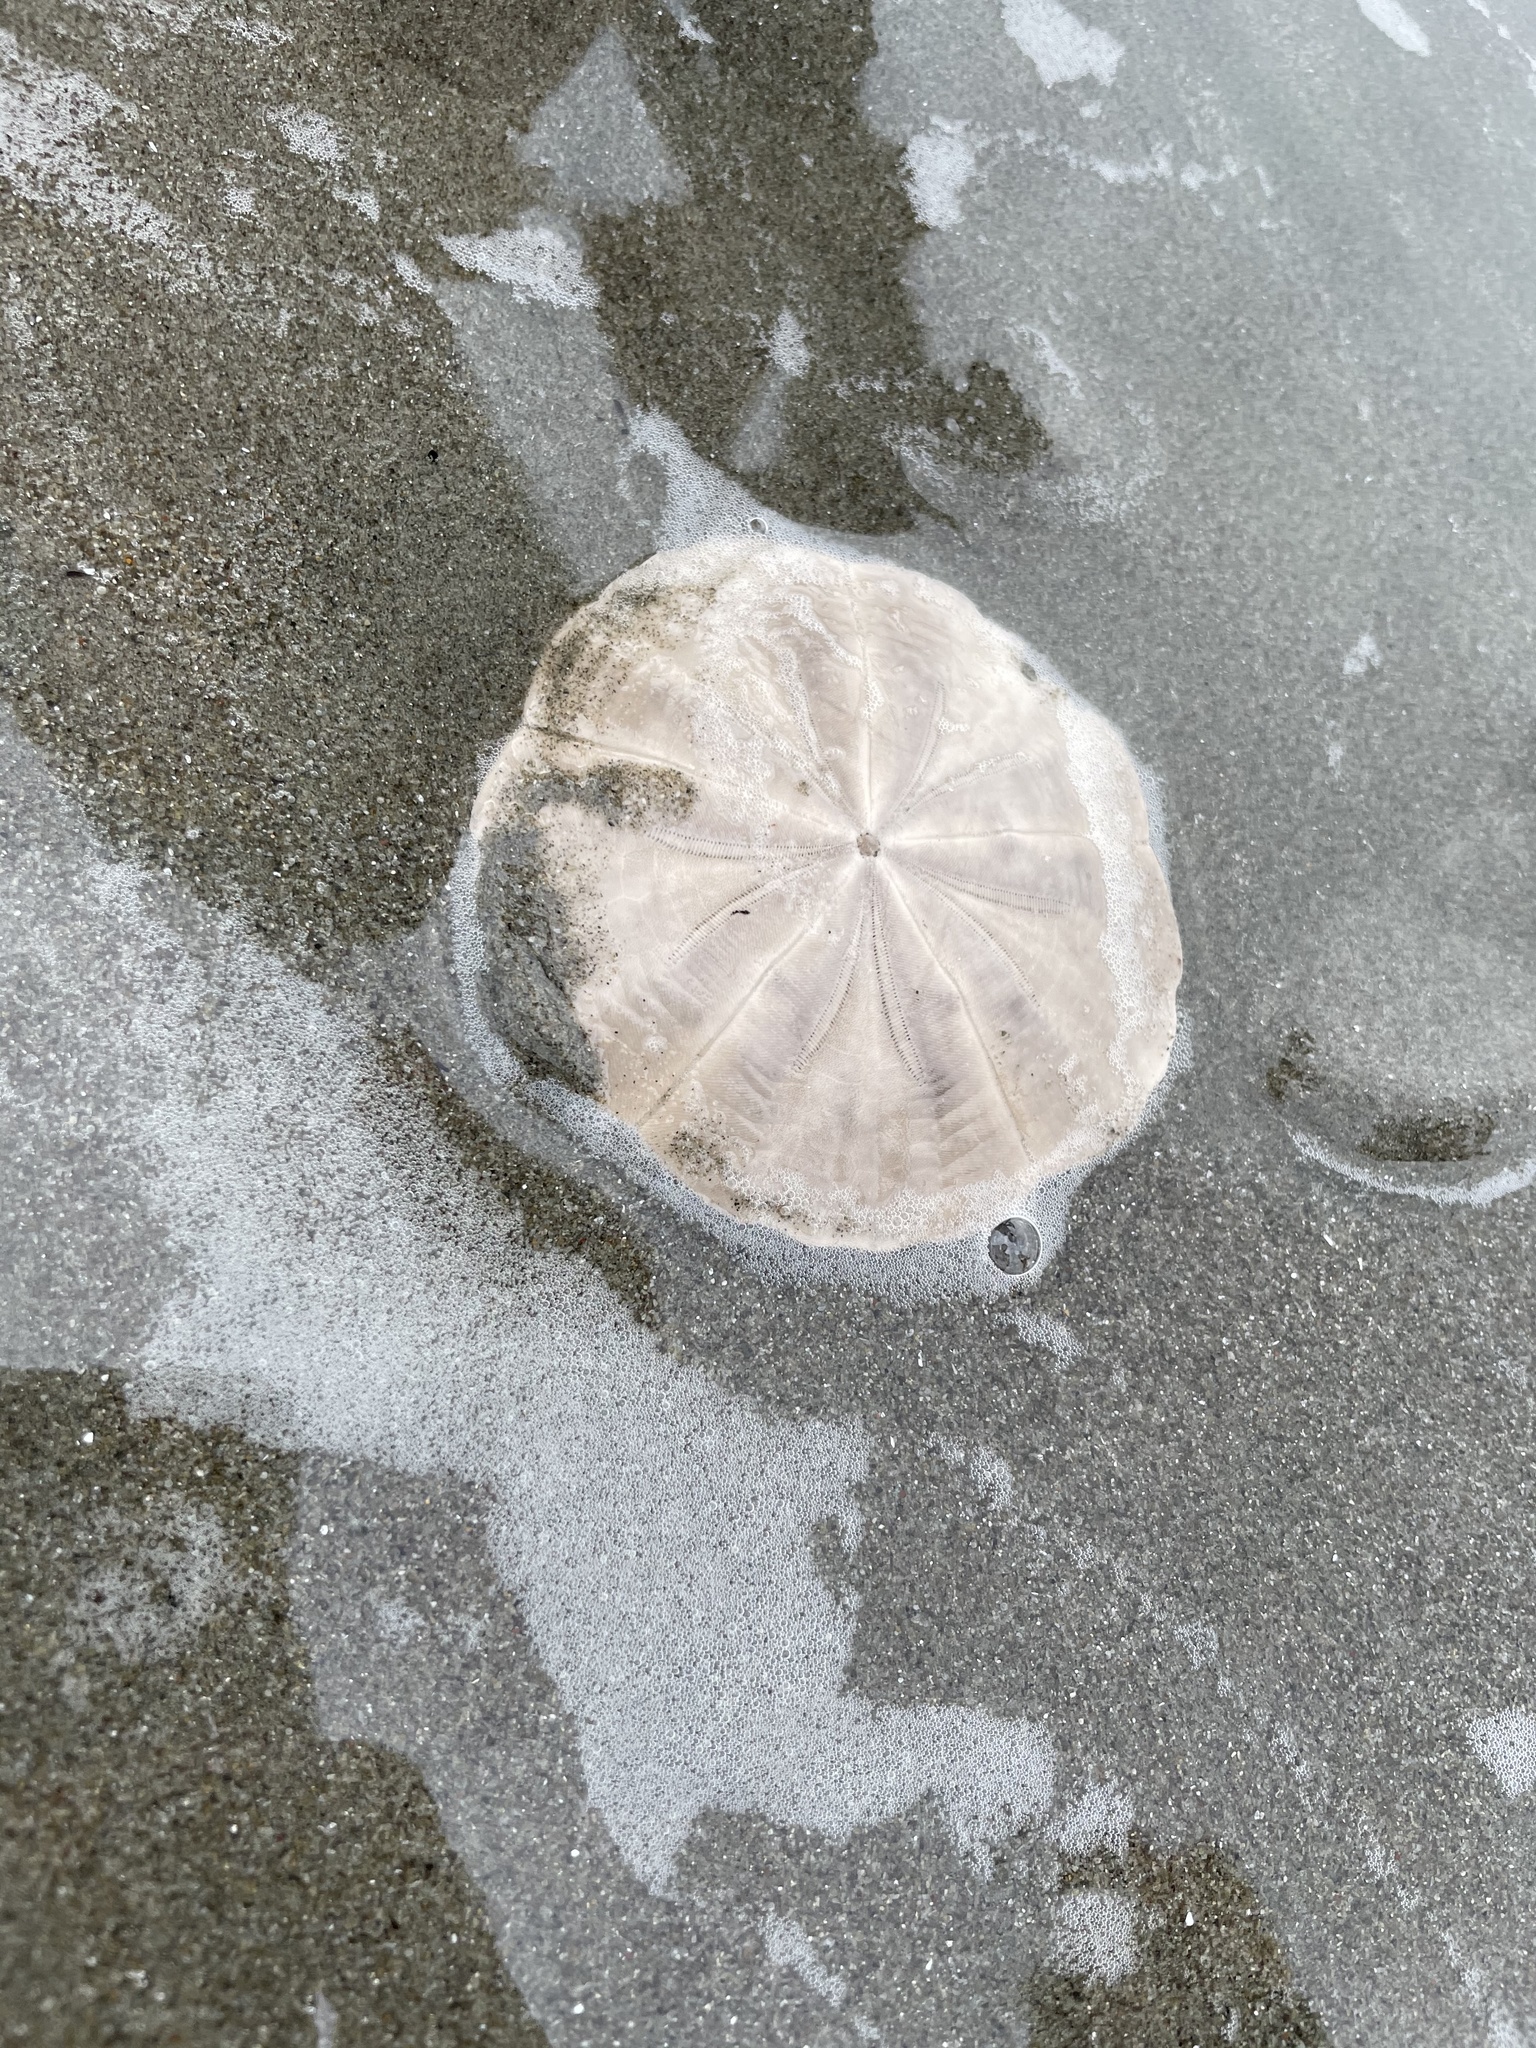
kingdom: Animalia
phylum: Echinodermata
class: Echinoidea
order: Clypeasteroida
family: Clypeasteridae
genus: Fellaster
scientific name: Fellaster zelandiae
